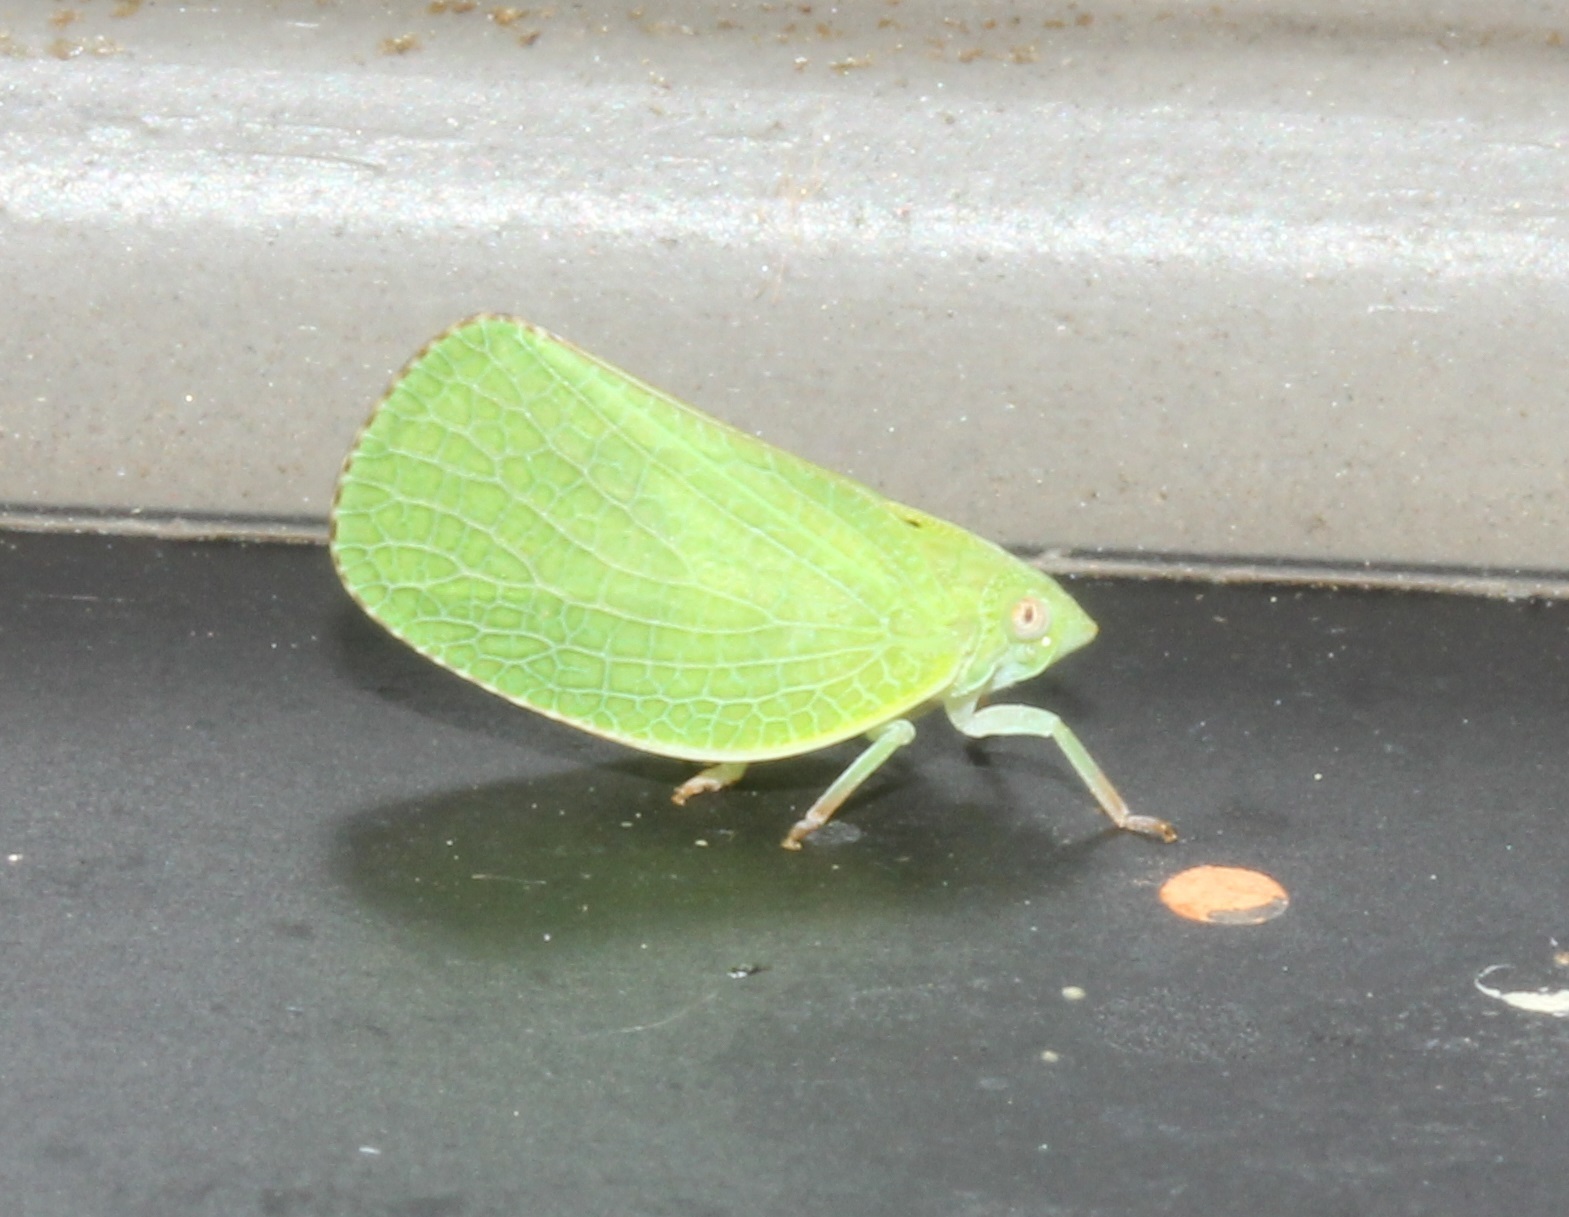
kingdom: Animalia
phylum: Arthropoda
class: Insecta
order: Hemiptera
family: Acanaloniidae
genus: Acanalonia
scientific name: Acanalonia conica
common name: Green cone-headed planthopper
